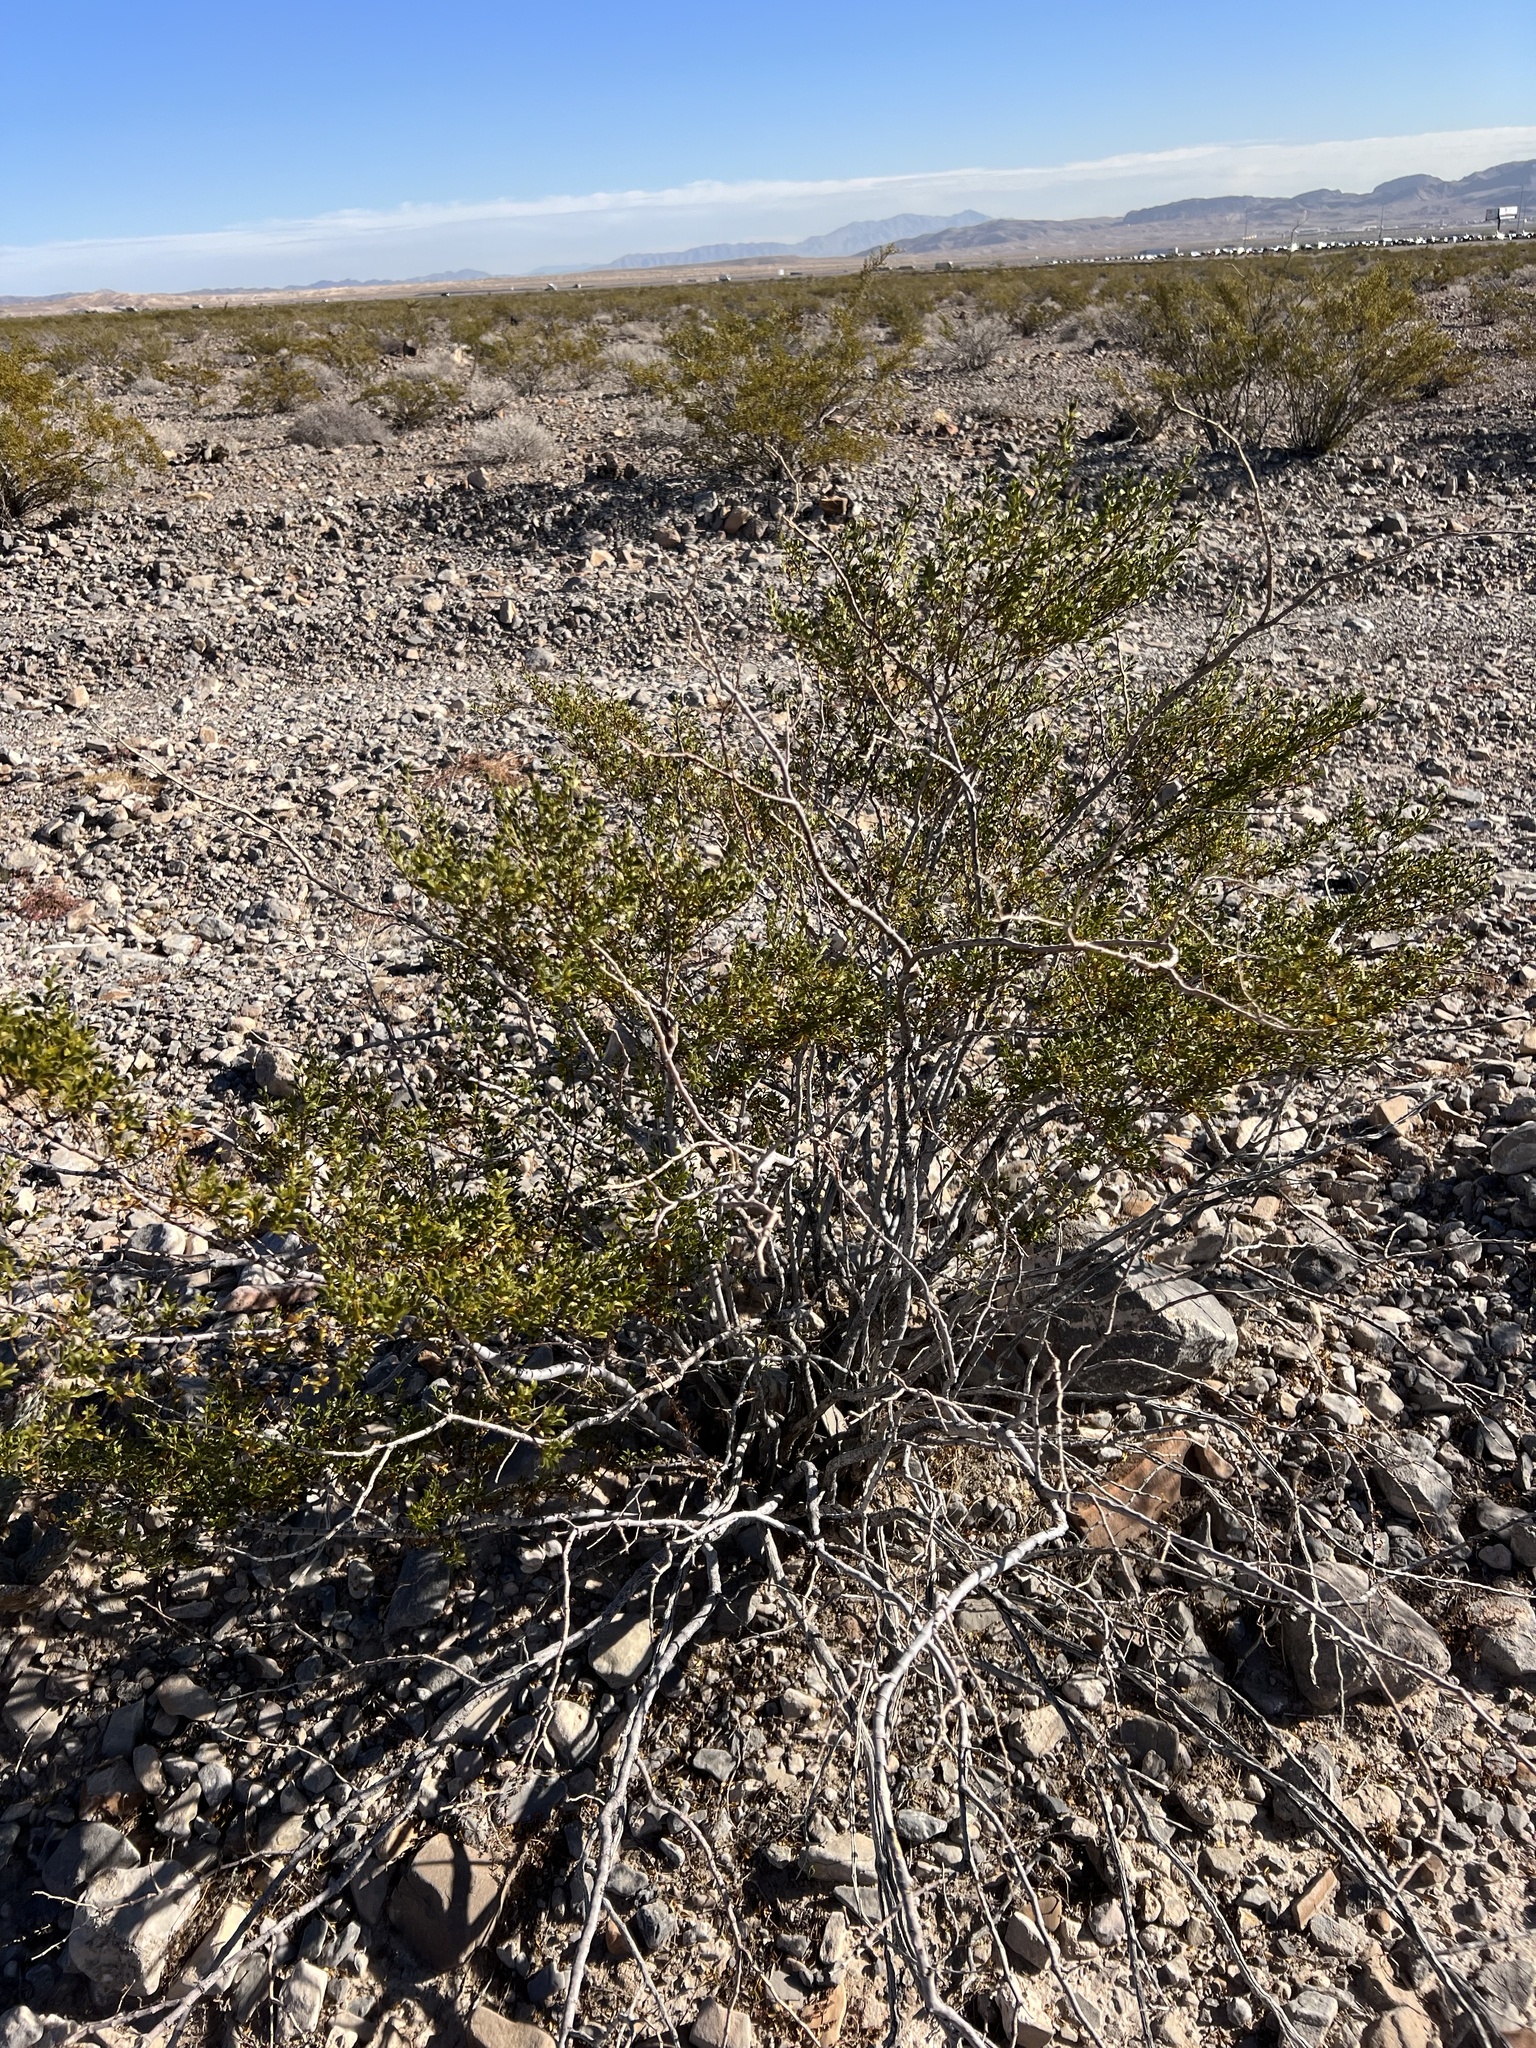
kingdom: Plantae
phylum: Tracheophyta
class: Magnoliopsida
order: Zygophyllales
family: Zygophyllaceae
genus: Larrea
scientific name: Larrea tridentata
